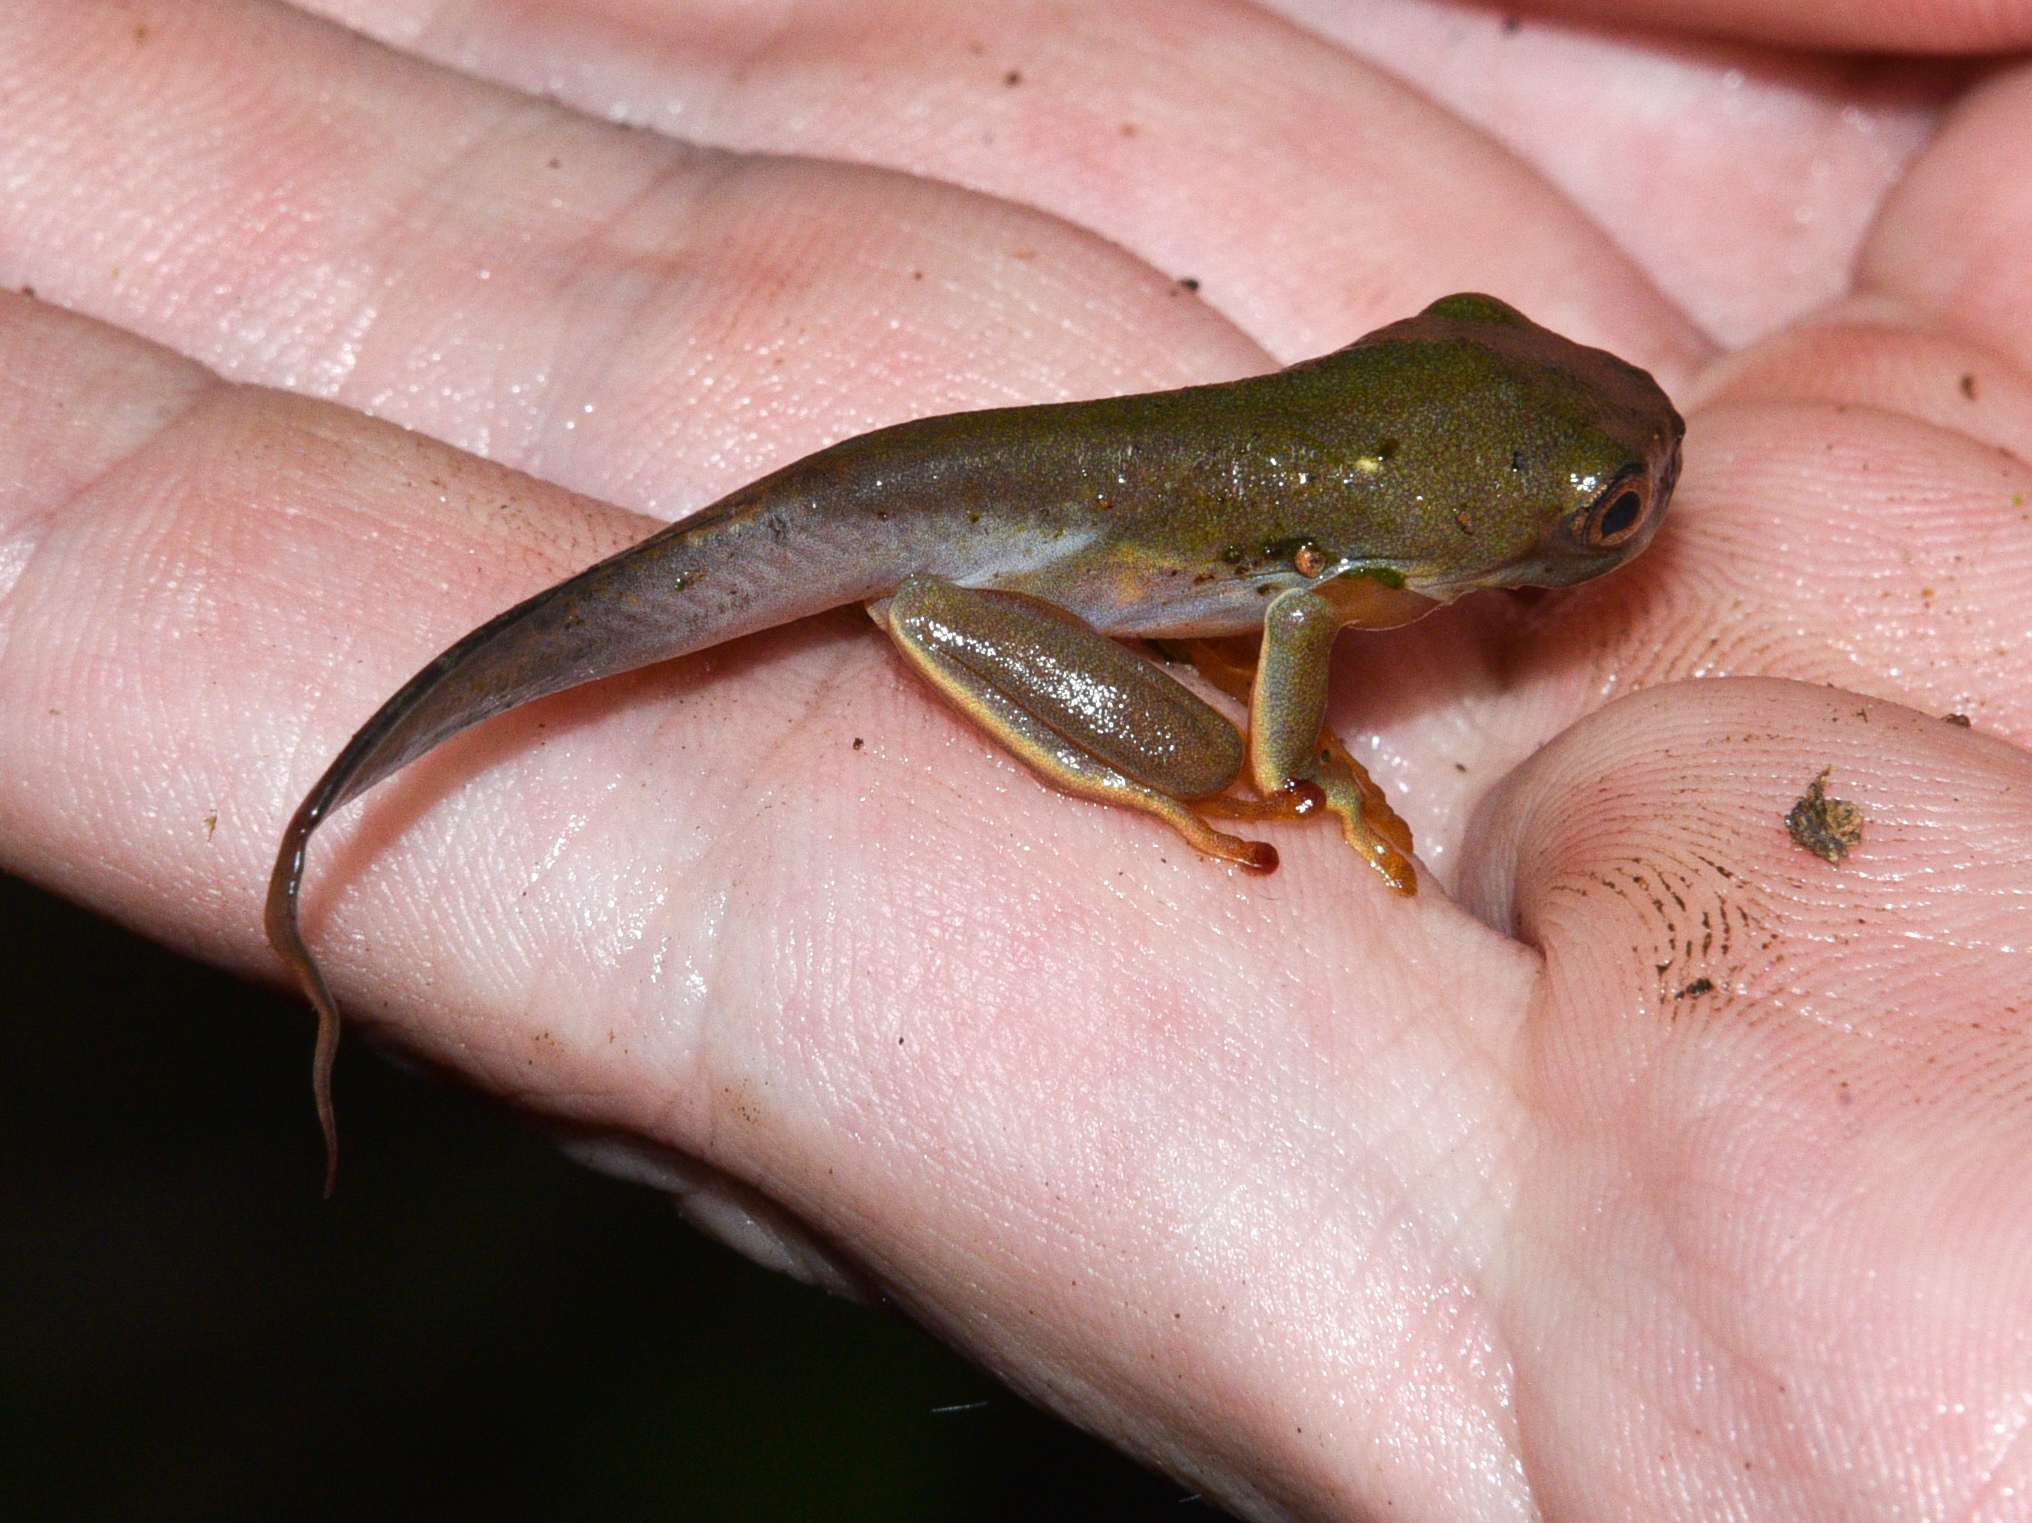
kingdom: Animalia
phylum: Chordata
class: Amphibia
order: Anura
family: Phyllomedusidae
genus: Agalychnis
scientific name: Agalychnis callidryas
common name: Red-eyed treefrog
